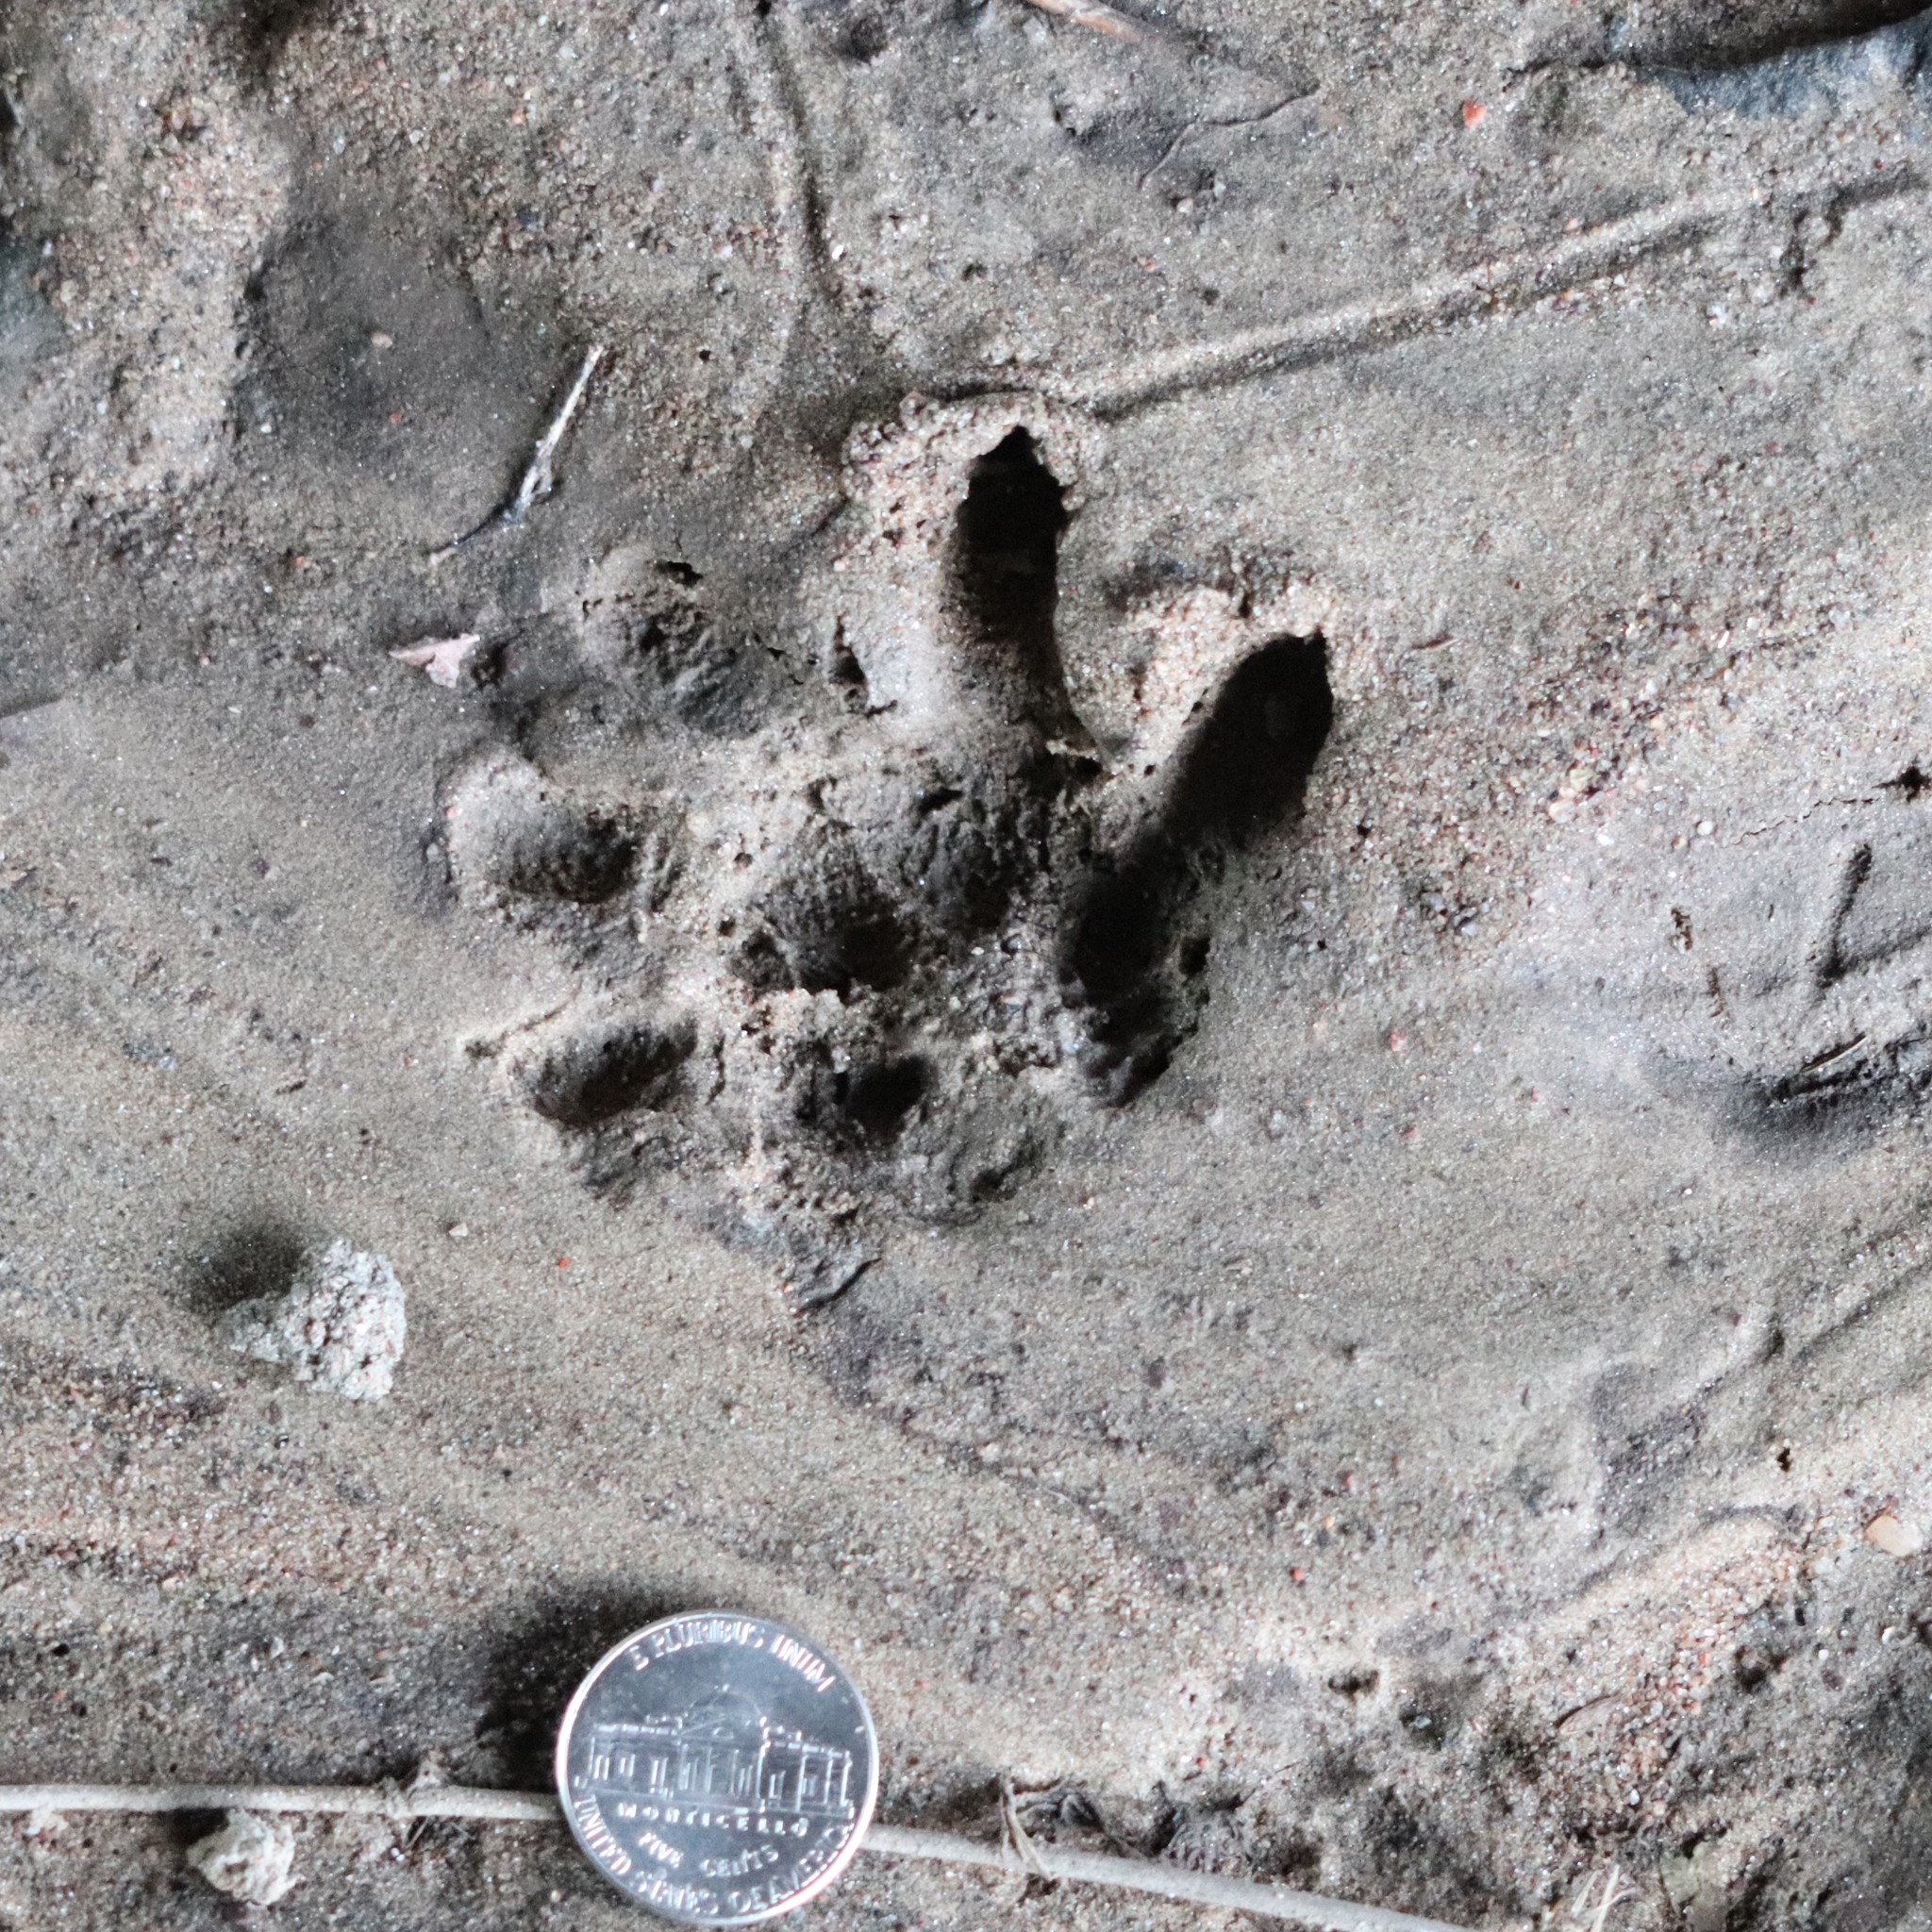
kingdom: Animalia
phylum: Chordata
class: Mammalia
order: Didelphimorphia
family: Didelphidae
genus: Didelphis
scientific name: Didelphis virginiana
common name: Virginia opossum
